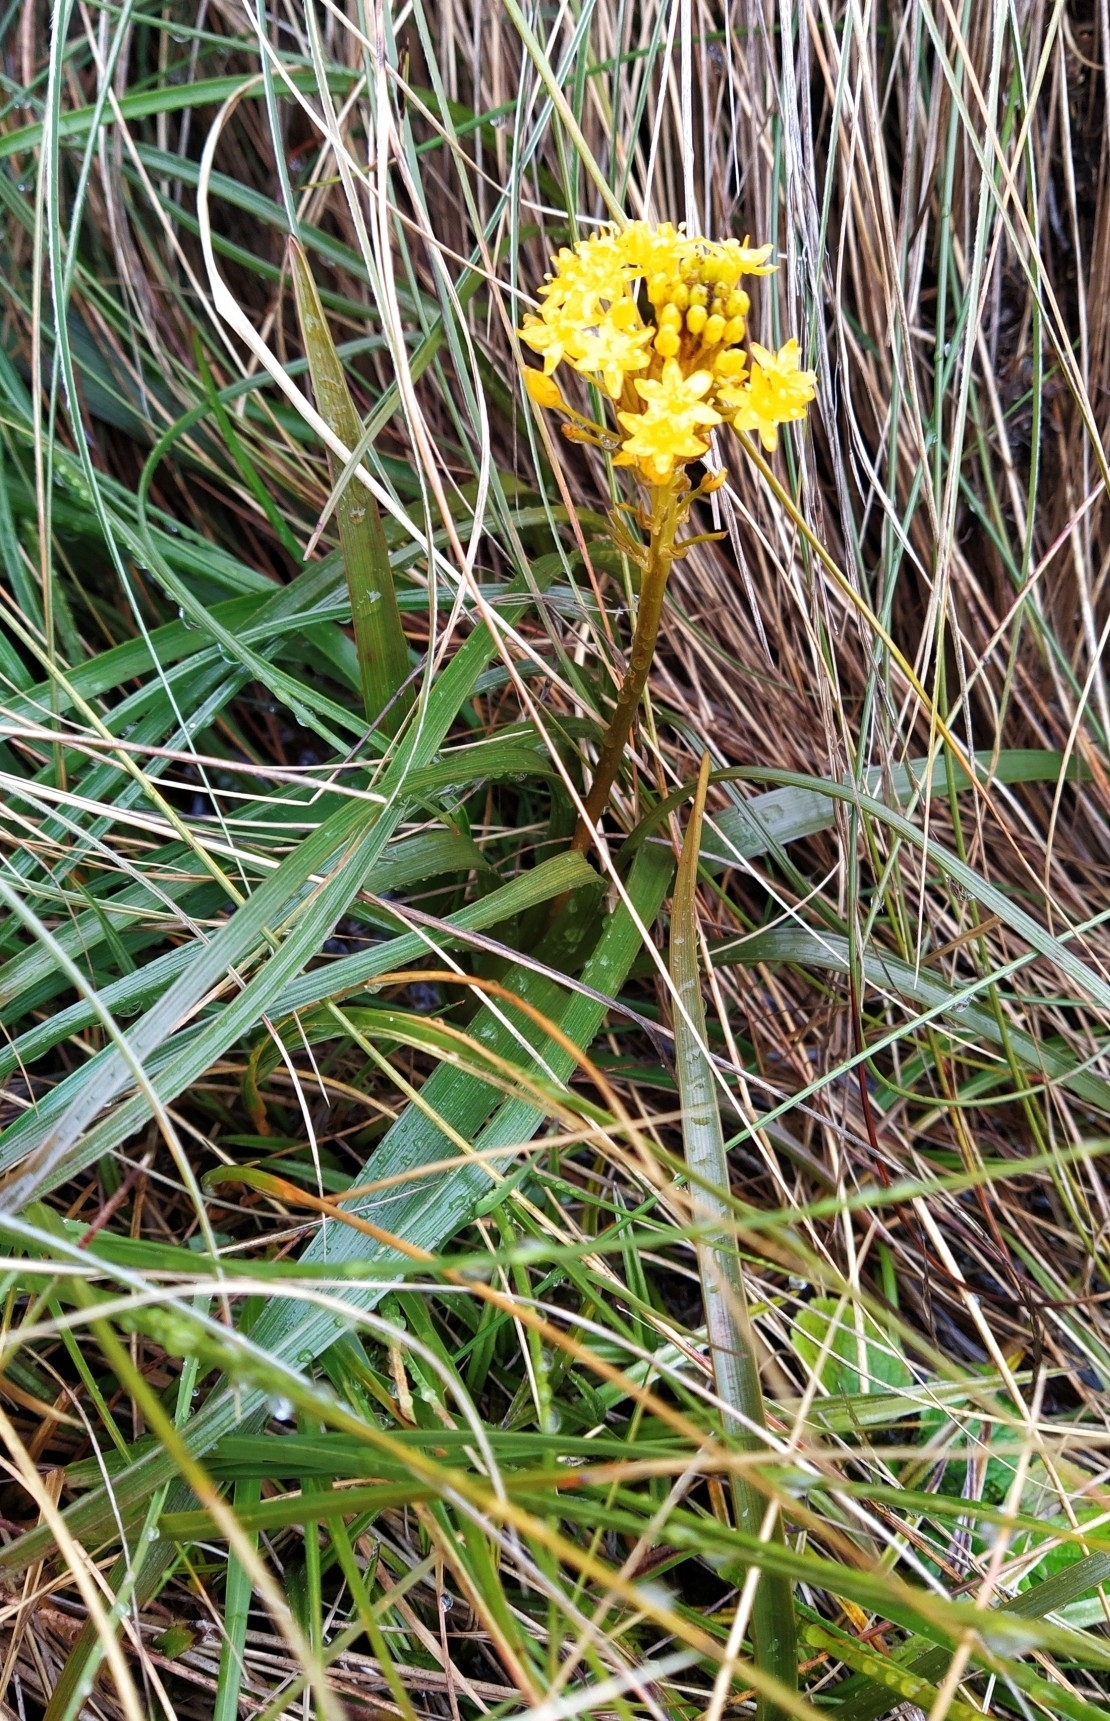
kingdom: Plantae
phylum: Tracheophyta
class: Liliopsida
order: Asparagales
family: Asphodelaceae
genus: Bulbinella
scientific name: Bulbinella gibbsii
